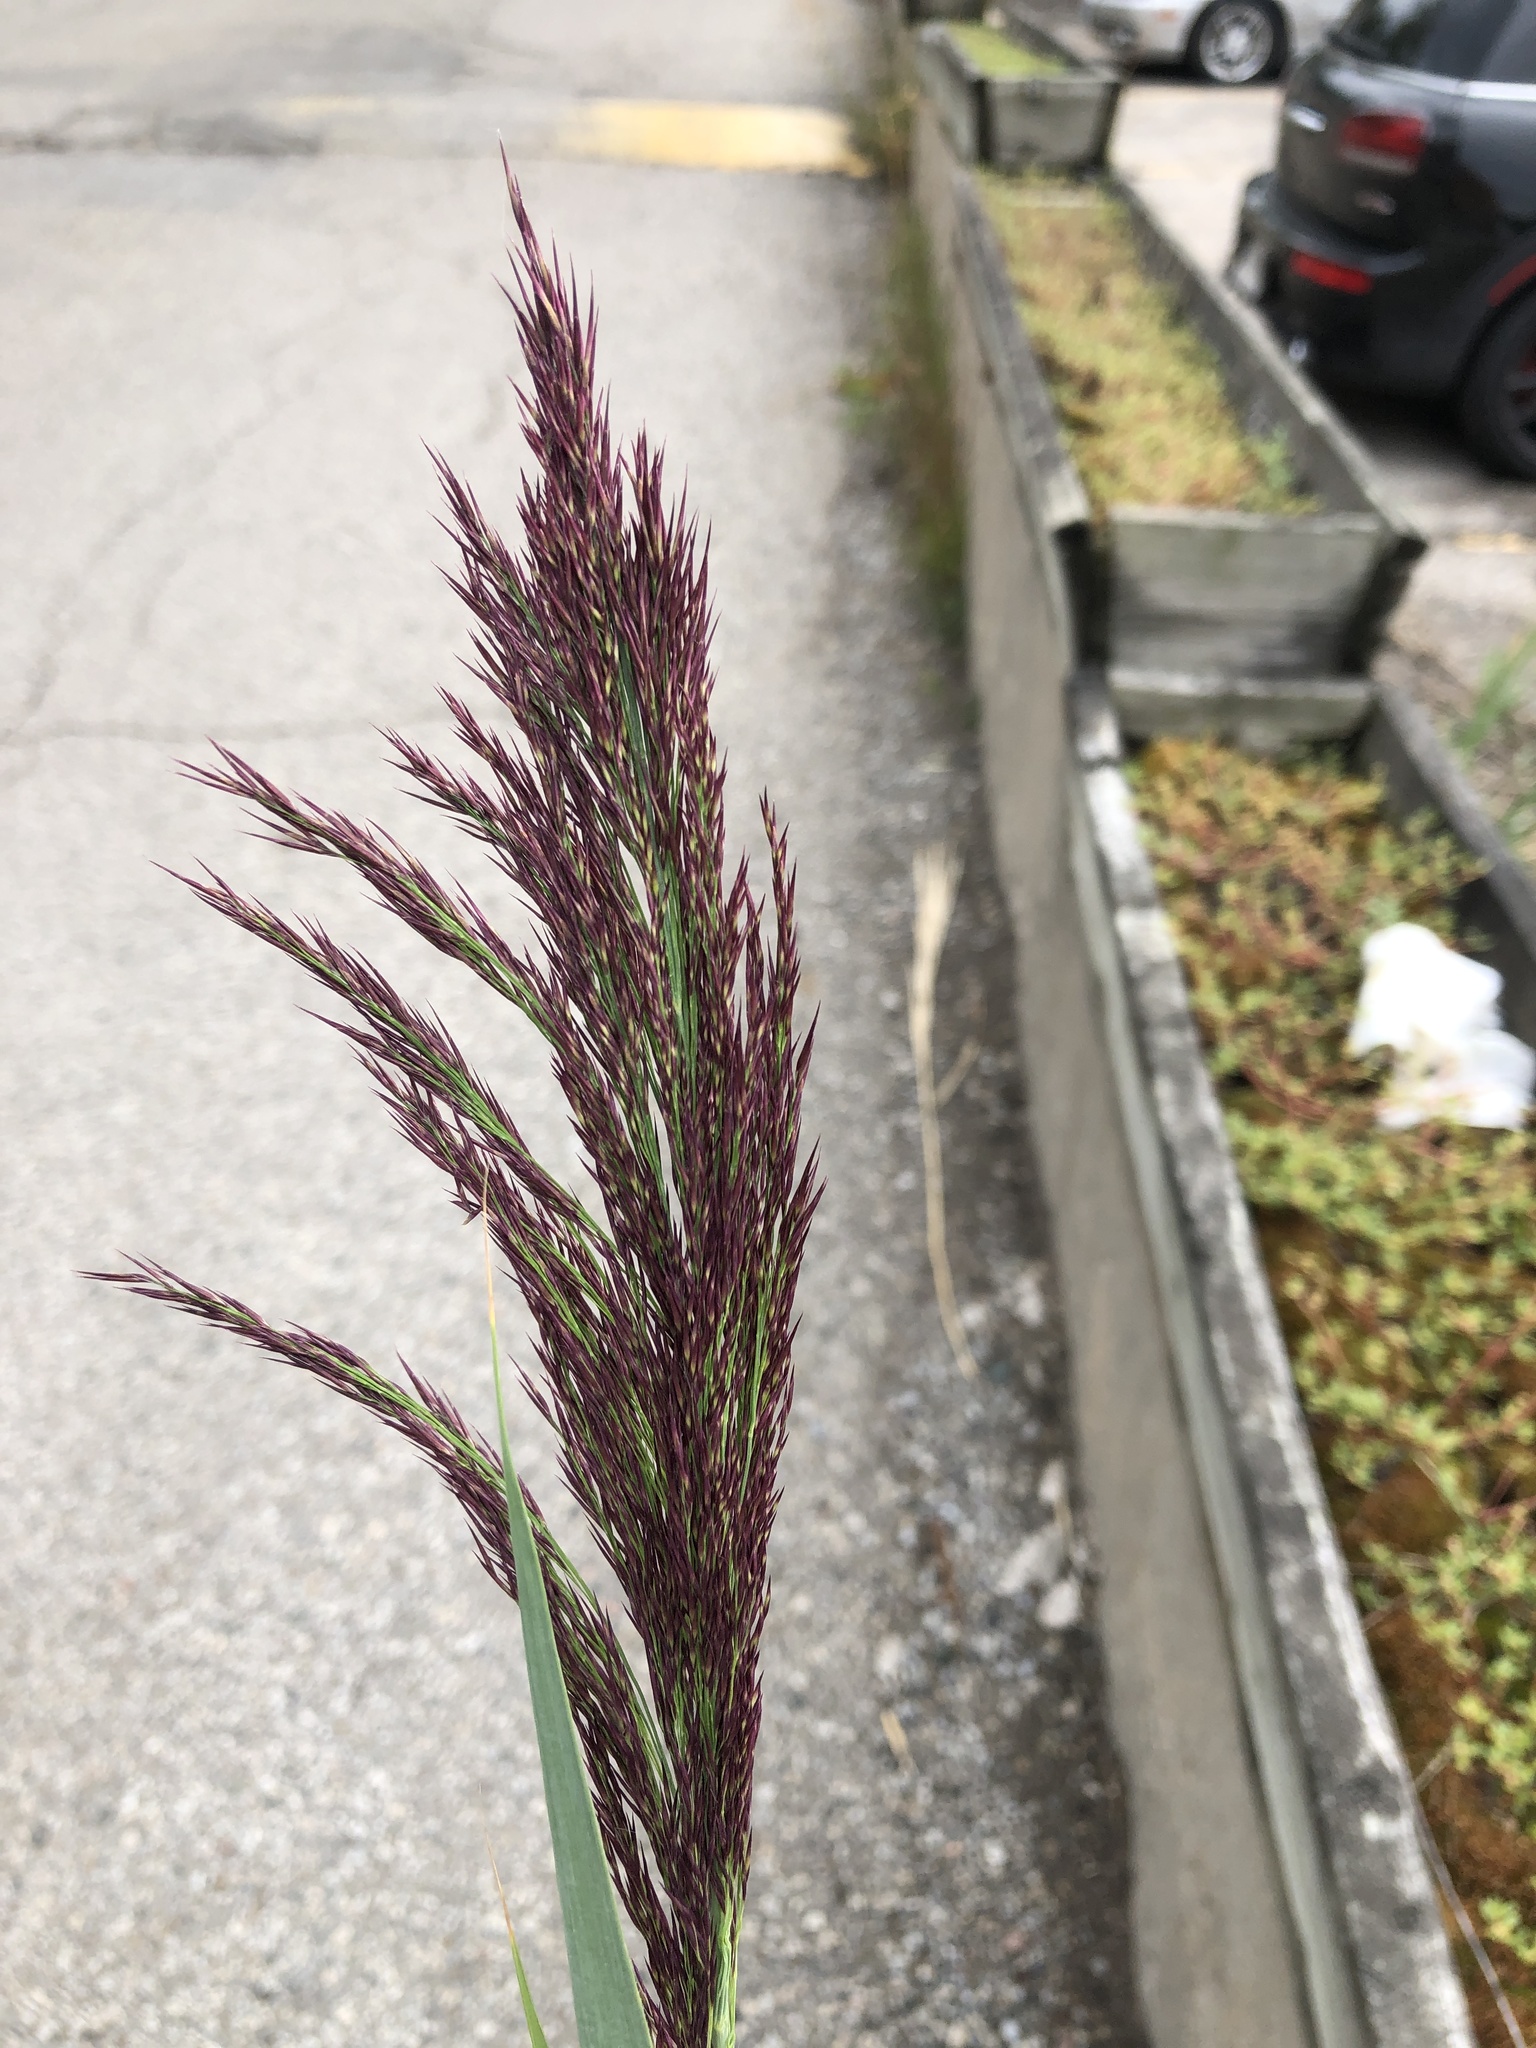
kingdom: Plantae
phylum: Tracheophyta
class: Liliopsida
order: Poales
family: Poaceae
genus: Phragmites
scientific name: Phragmites australis
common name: Common reed
